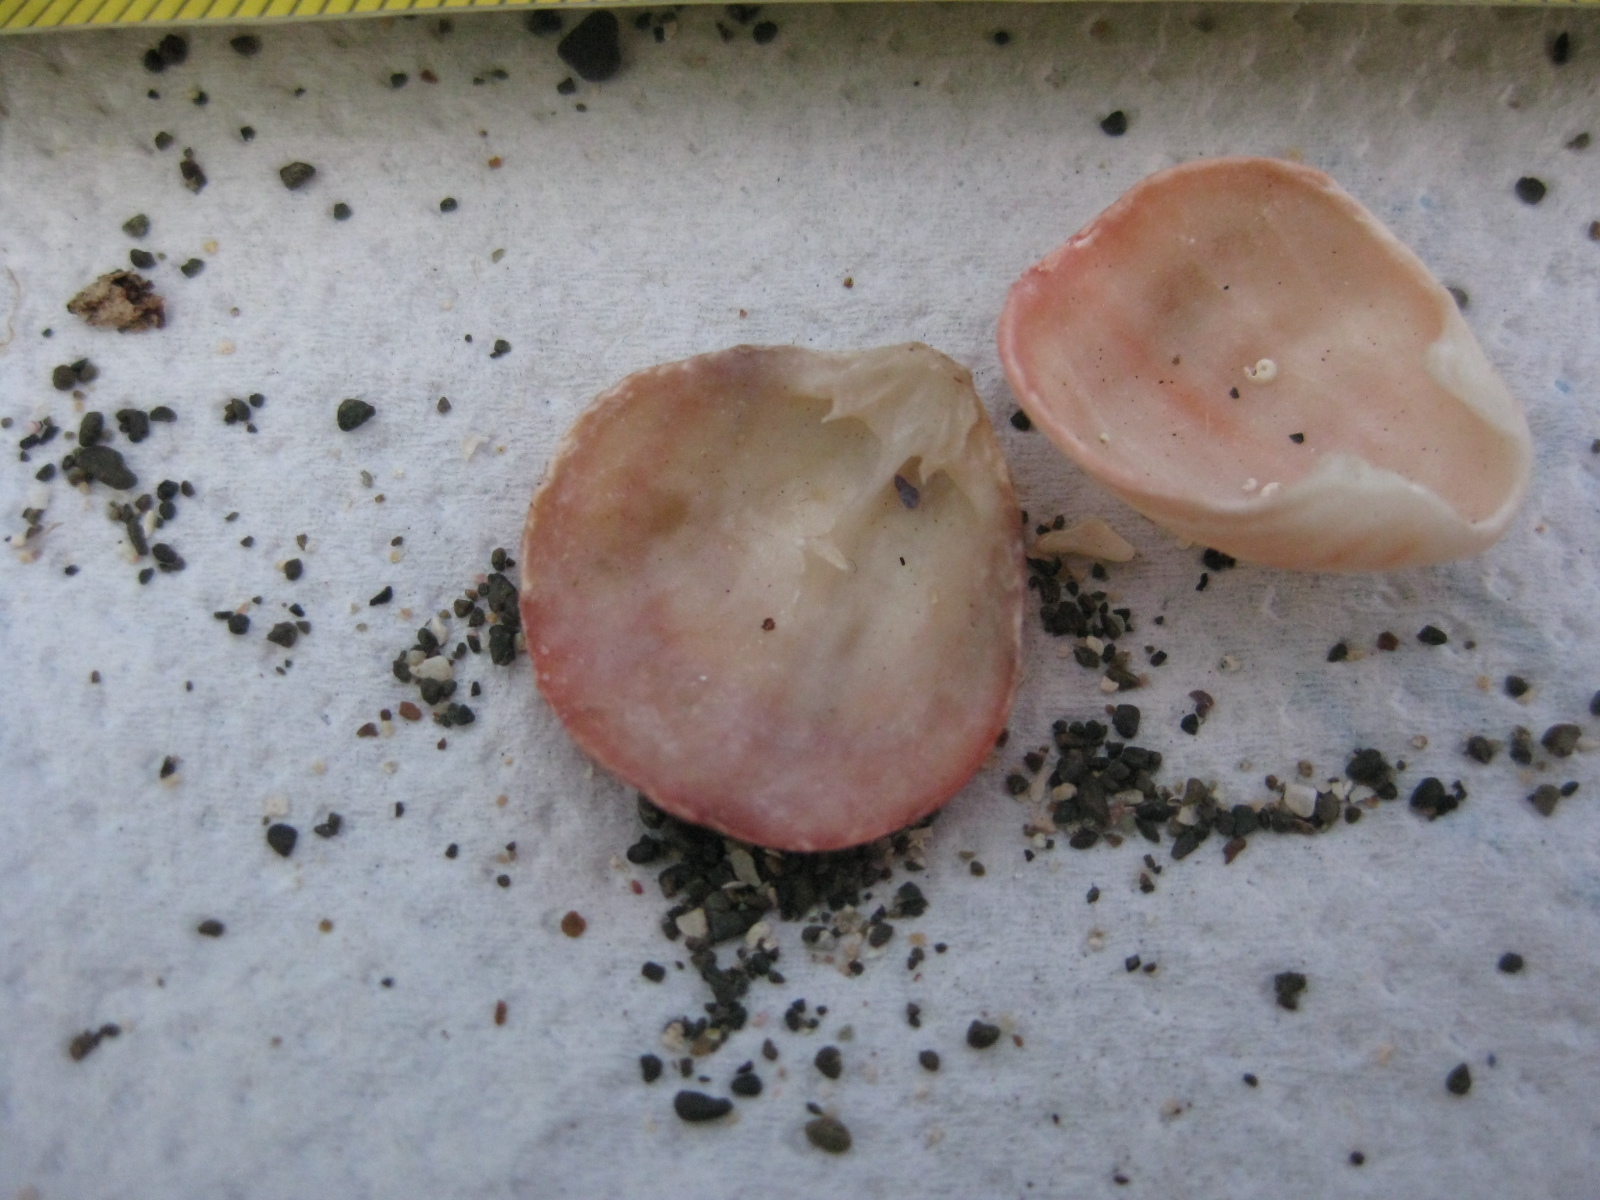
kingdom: Animalia
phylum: Brachiopoda
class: Rhynchonellata
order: Terebratulida
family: Terebratellidae
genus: Calloria
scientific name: Calloria inconspicua
